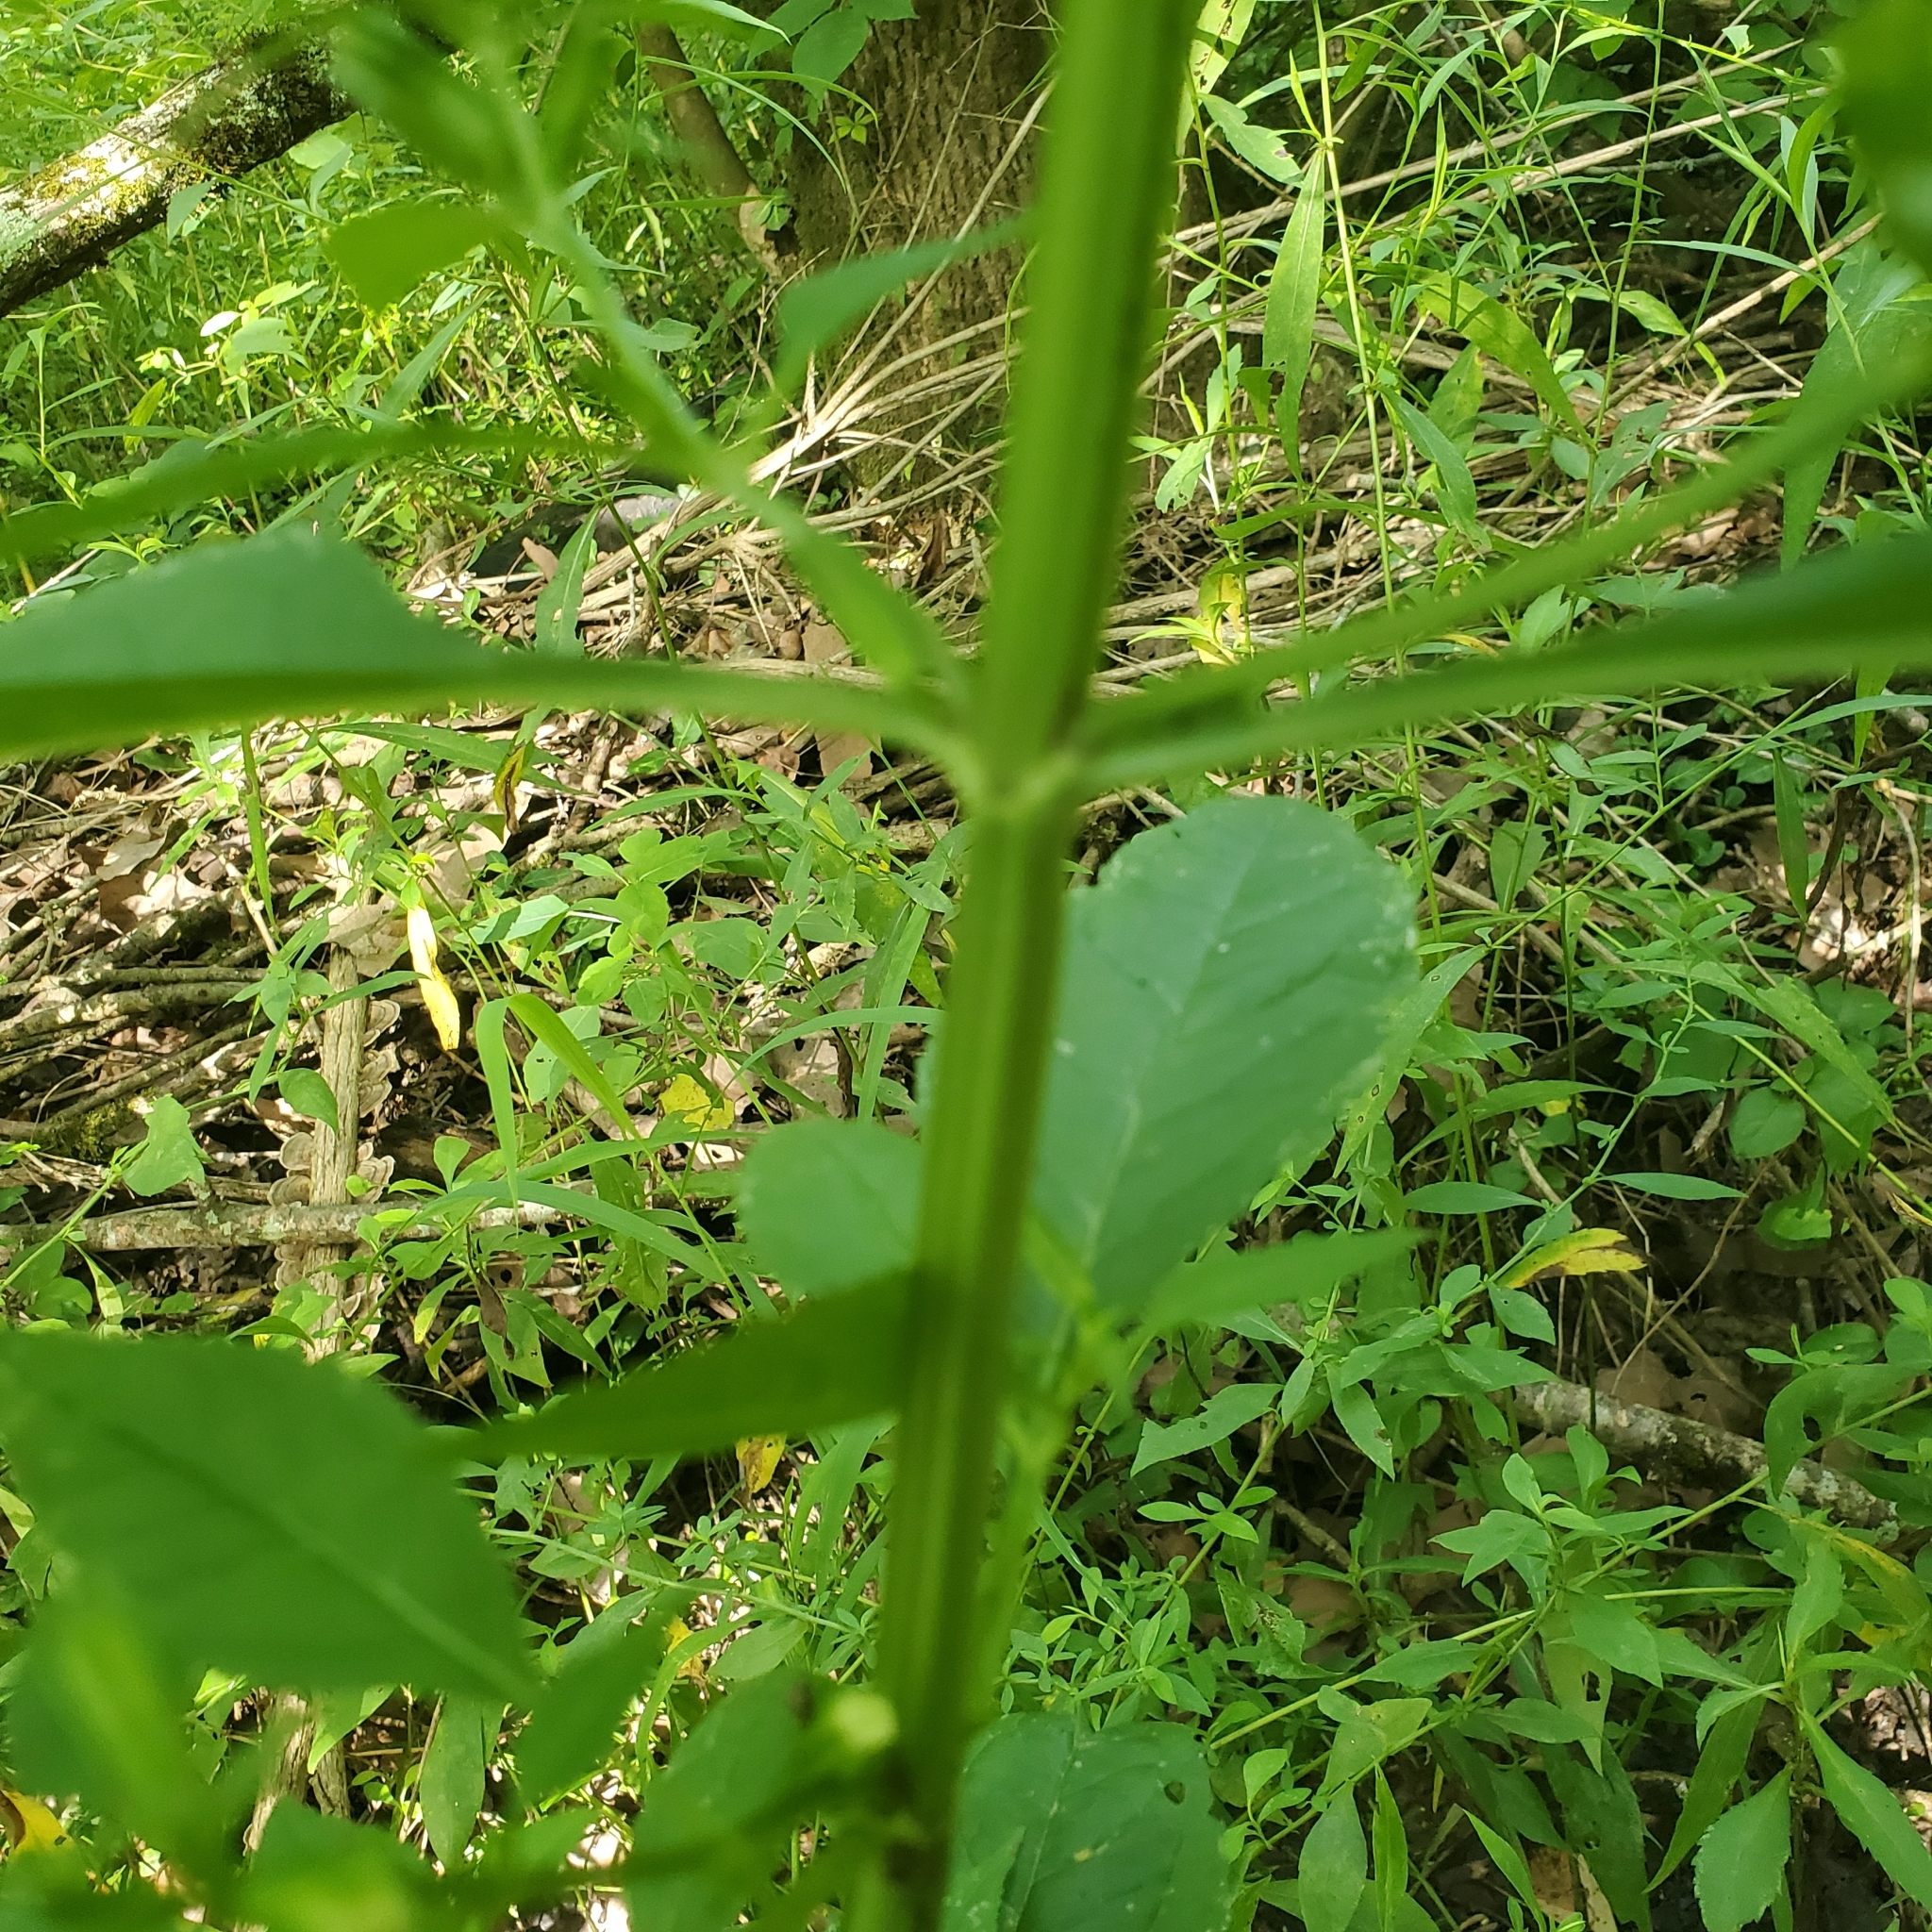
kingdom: Plantae
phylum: Tracheophyta
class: Magnoliopsida
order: Lamiales
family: Phrymaceae
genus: Mimulus
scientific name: Mimulus alatus
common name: Sharp-wing monkey-flower
